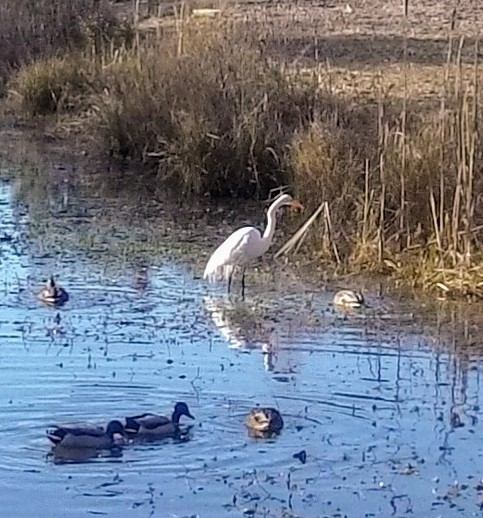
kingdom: Animalia
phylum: Chordata
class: Aves
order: Pelecaniformes
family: Ardeidae
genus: Ardea
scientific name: Ardea alba
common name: Great egret
